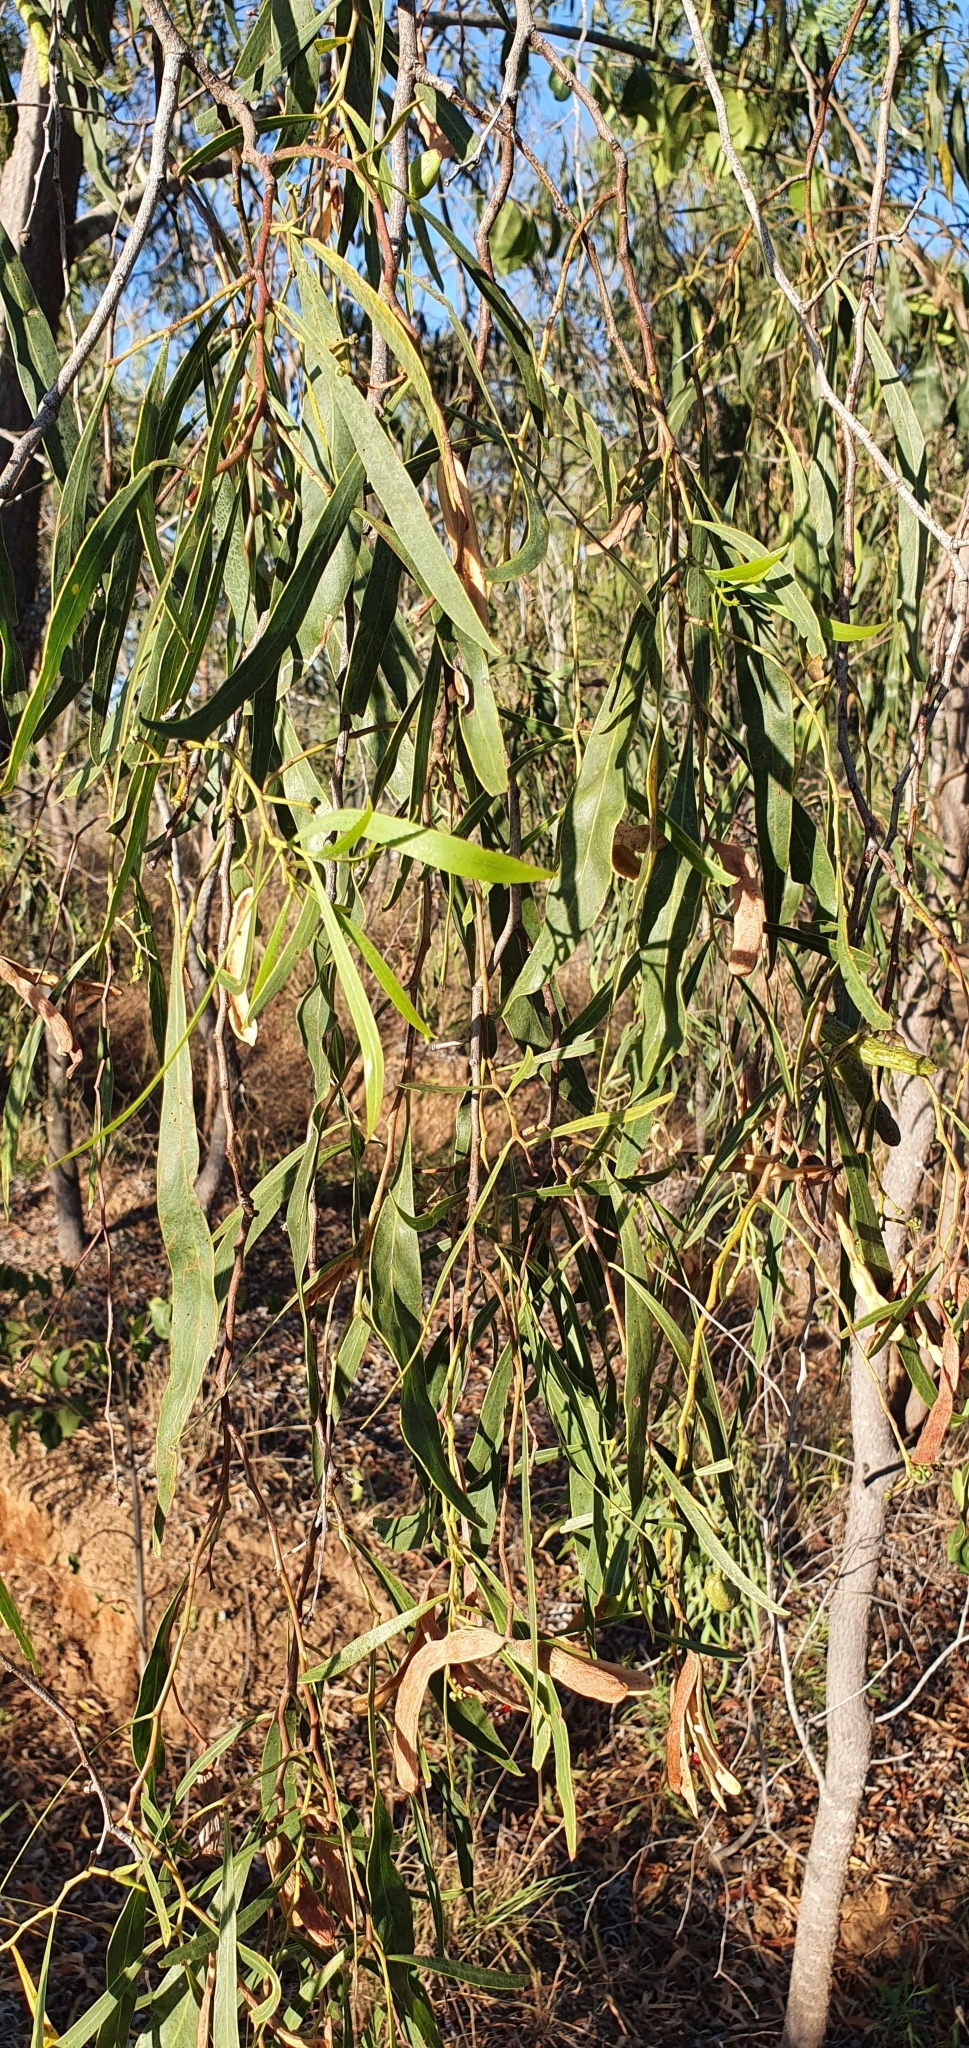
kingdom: Plantae
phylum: Tracheophyta
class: Magnoliopsida
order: Fabales
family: Fabaceae
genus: Acacia
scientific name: Acacia salicina
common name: Broughton willow wattle
